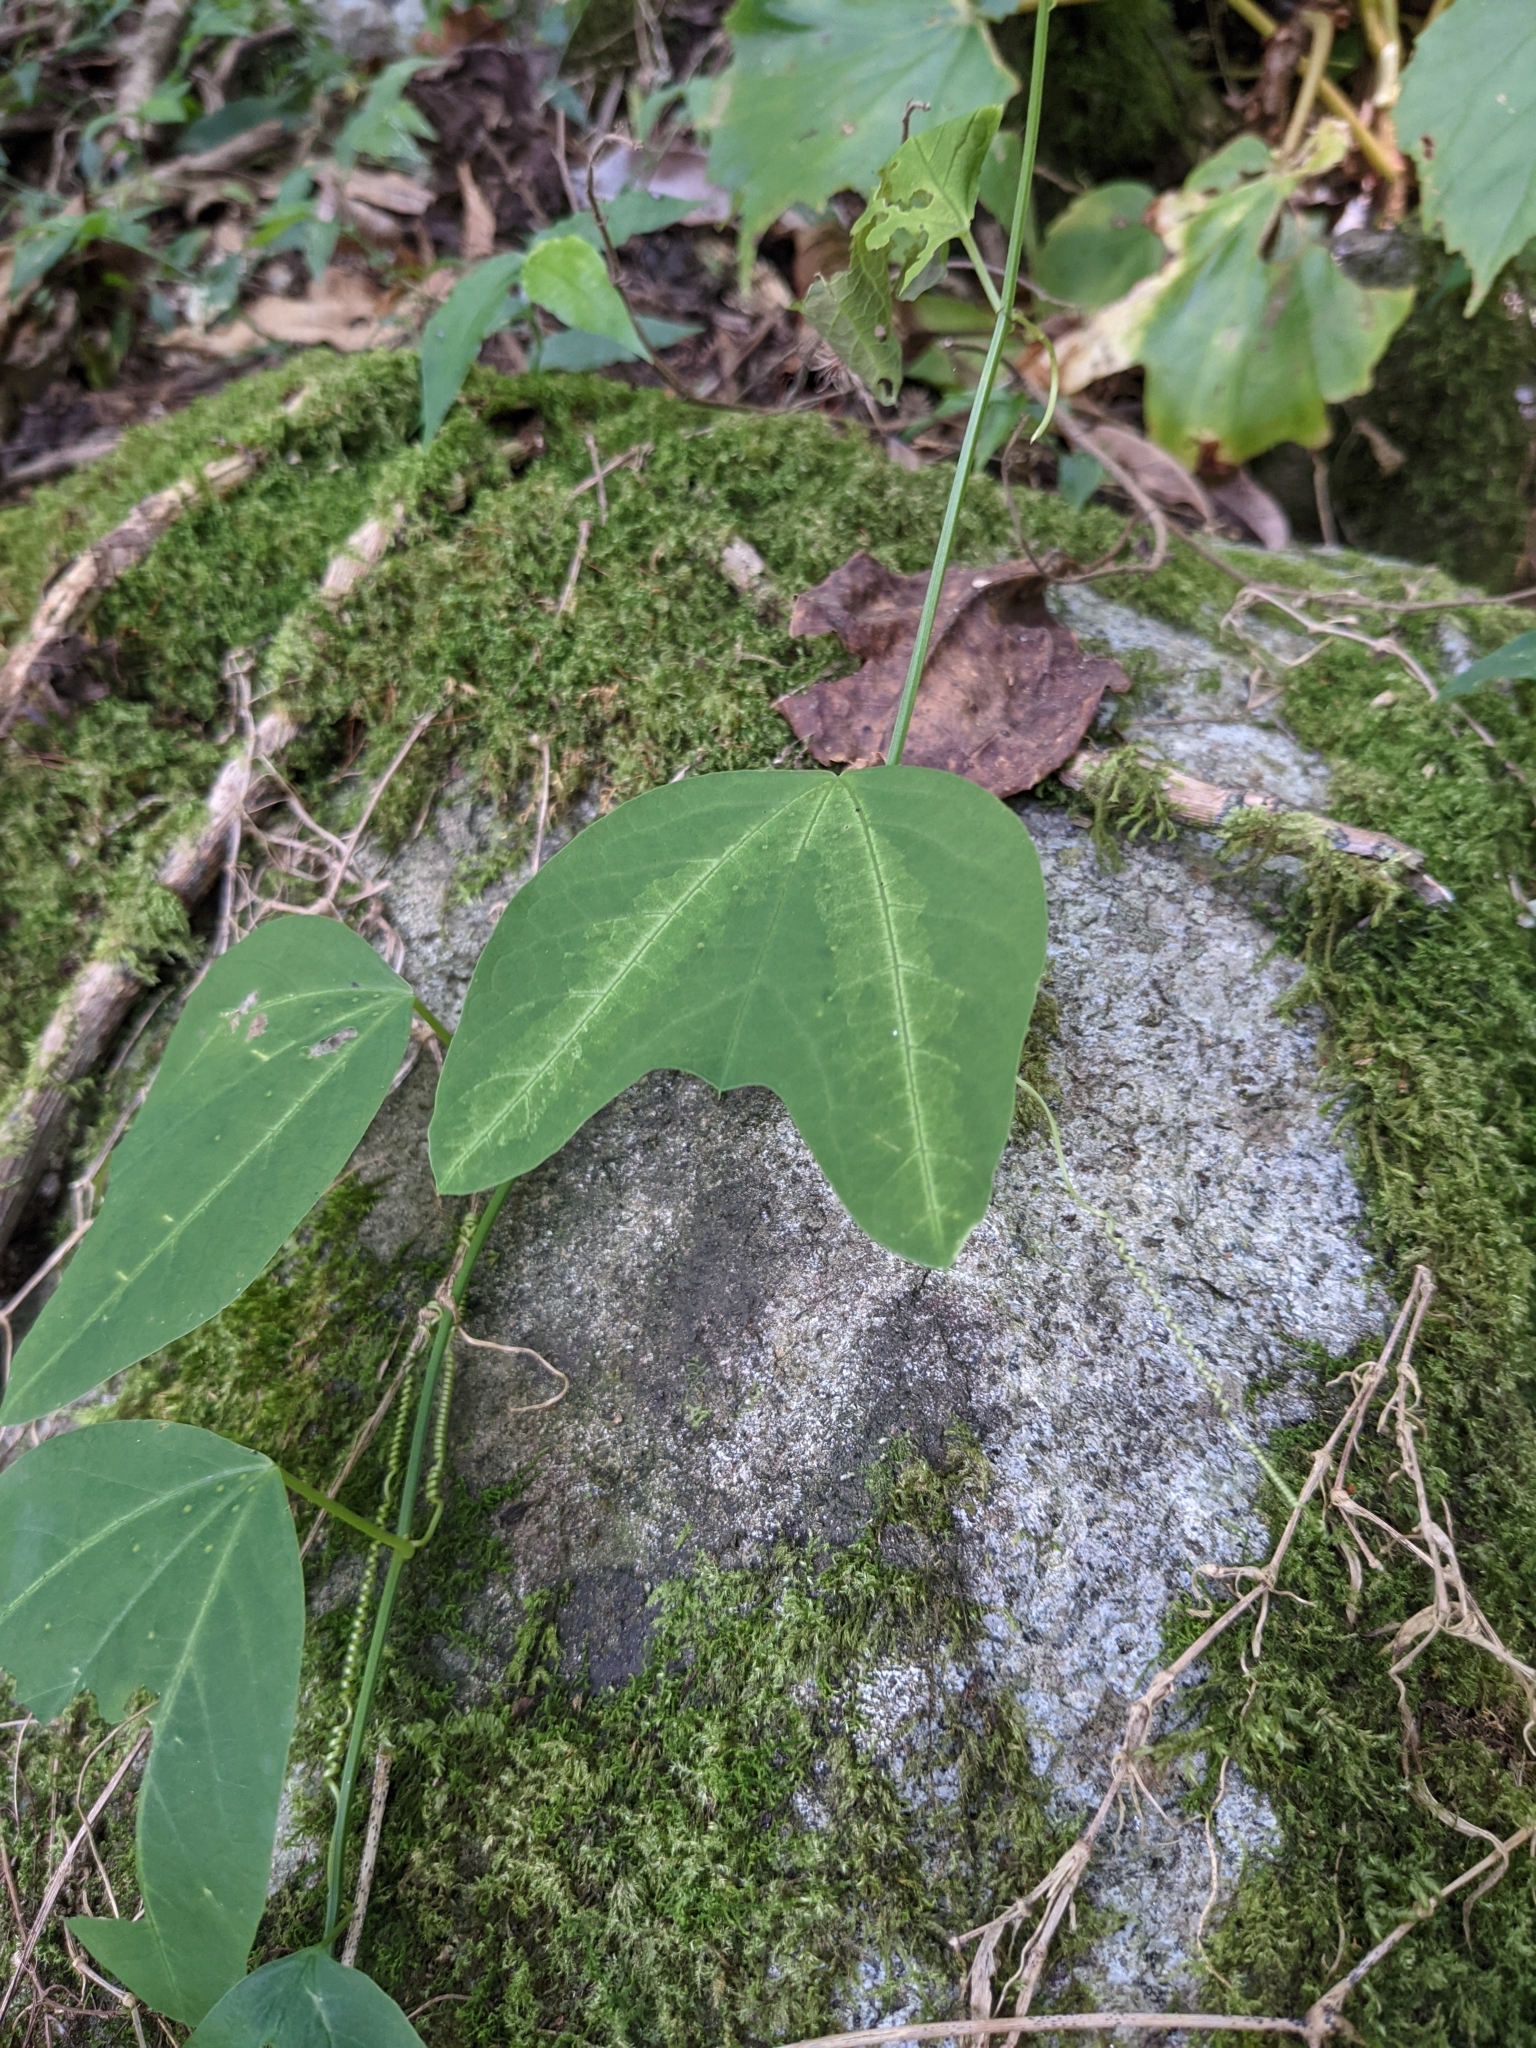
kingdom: Plantae
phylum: Tracheophyta
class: Magnoliopsida
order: Malpighiales
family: Passifloraceae
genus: Passiflora
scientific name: Passiflora apetala
